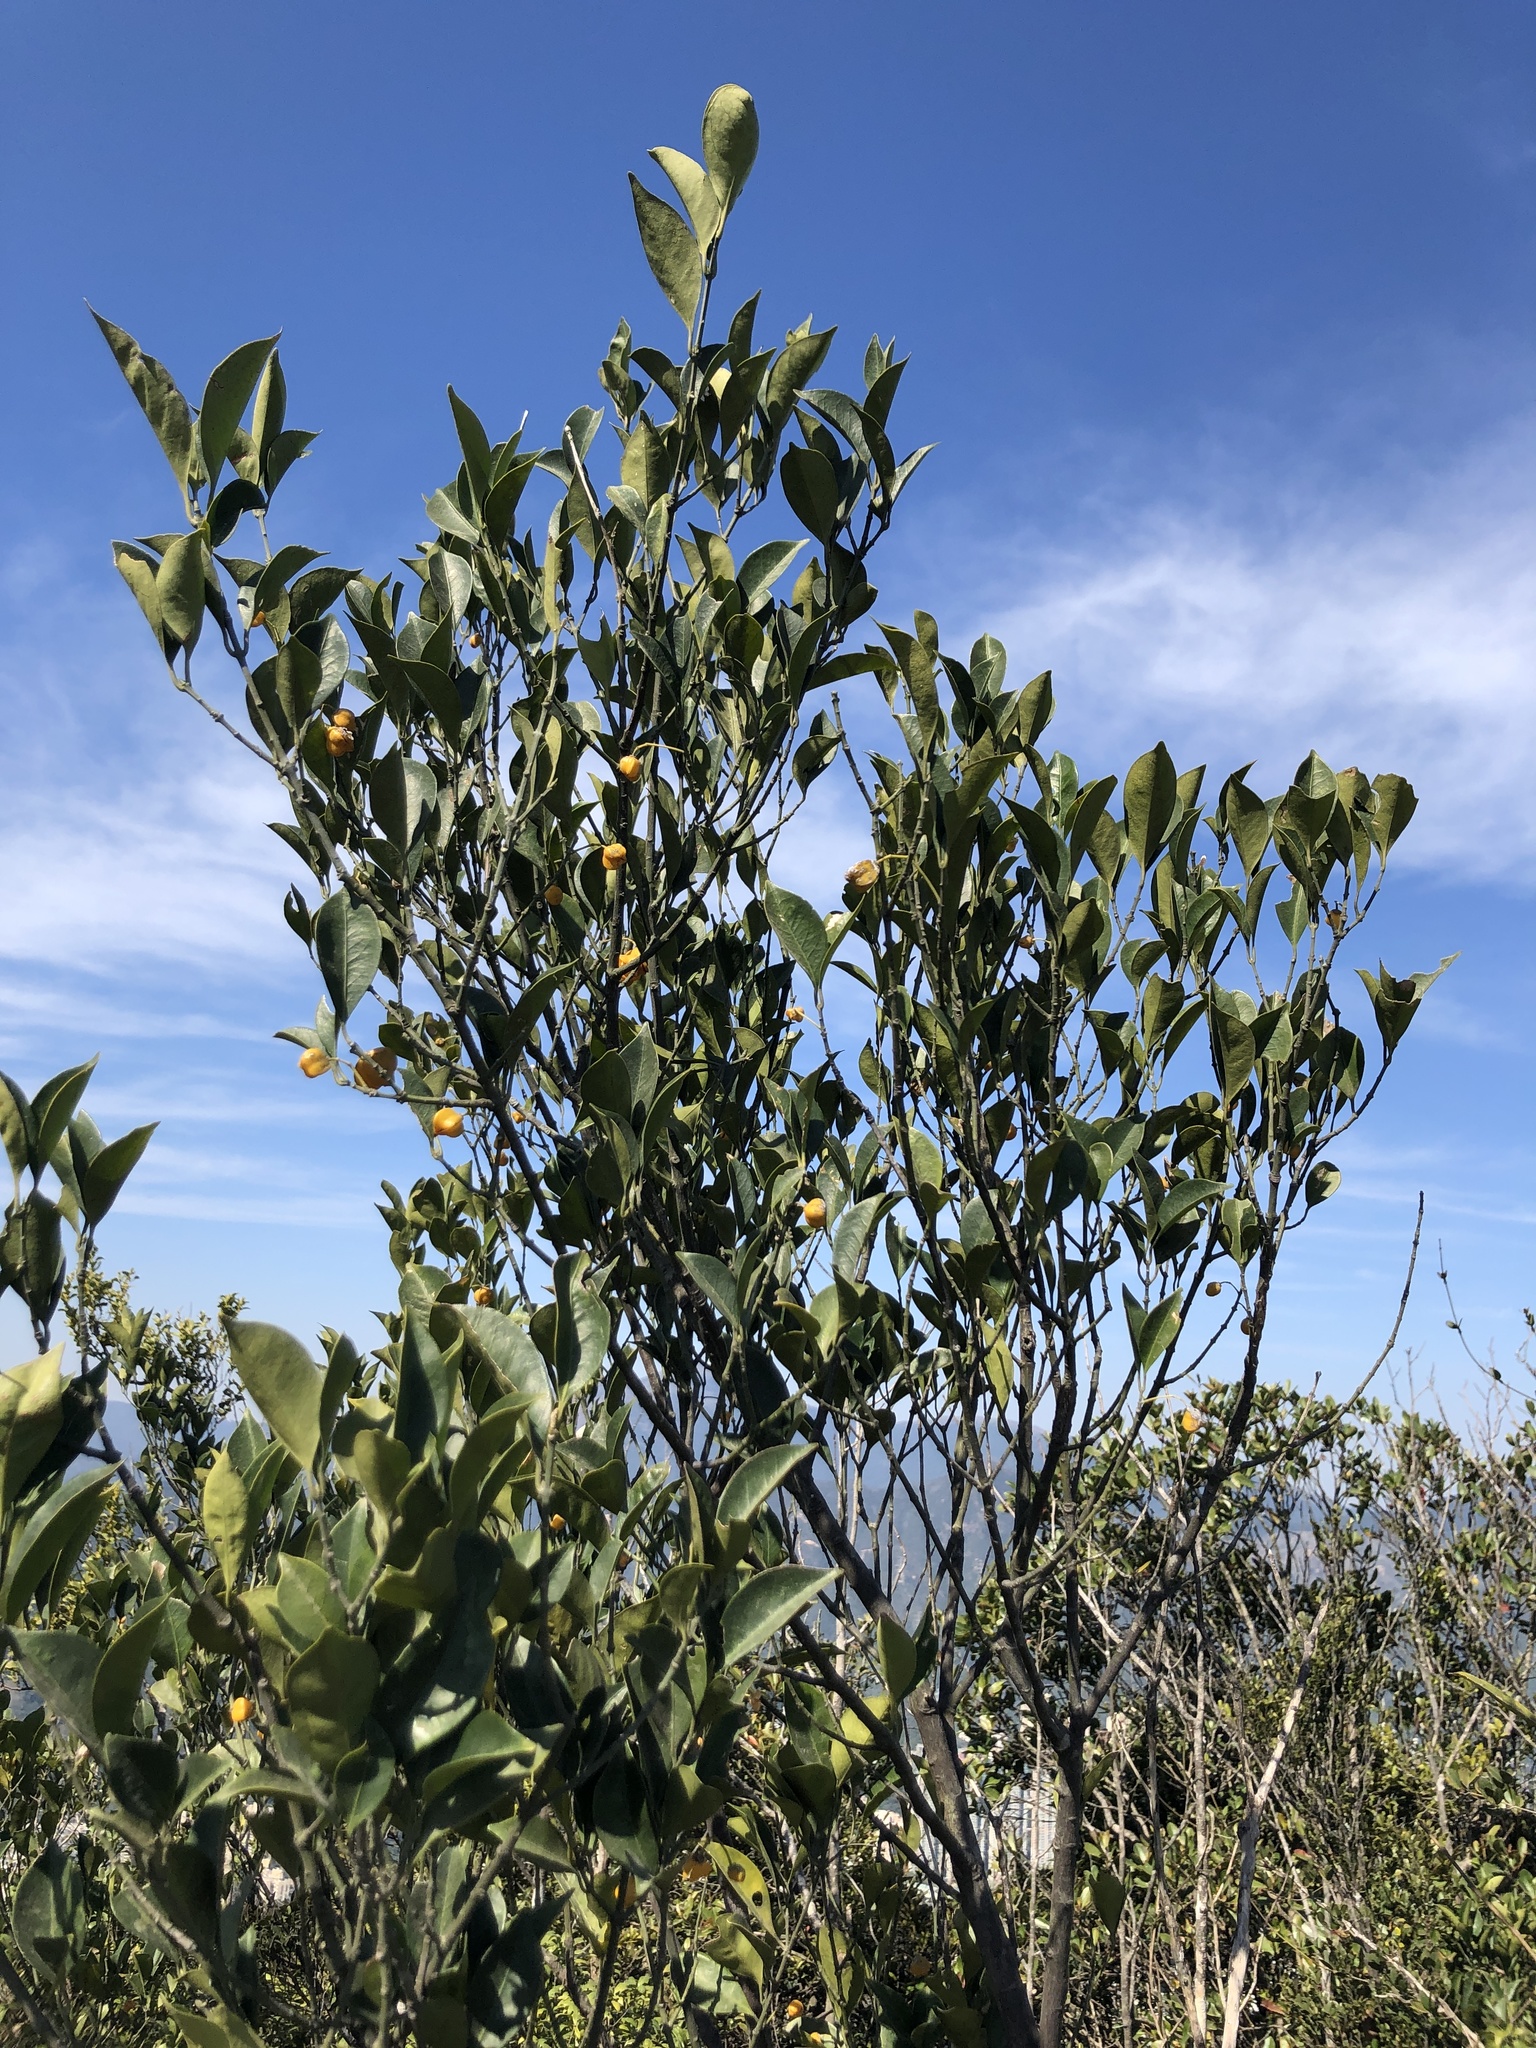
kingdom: Plantae
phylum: Tracheophyta
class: Magnoliopsida
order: Solanales
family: Solanaceae
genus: Solanum
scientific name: Solanum diphyllum
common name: Twoleaf nightshade
